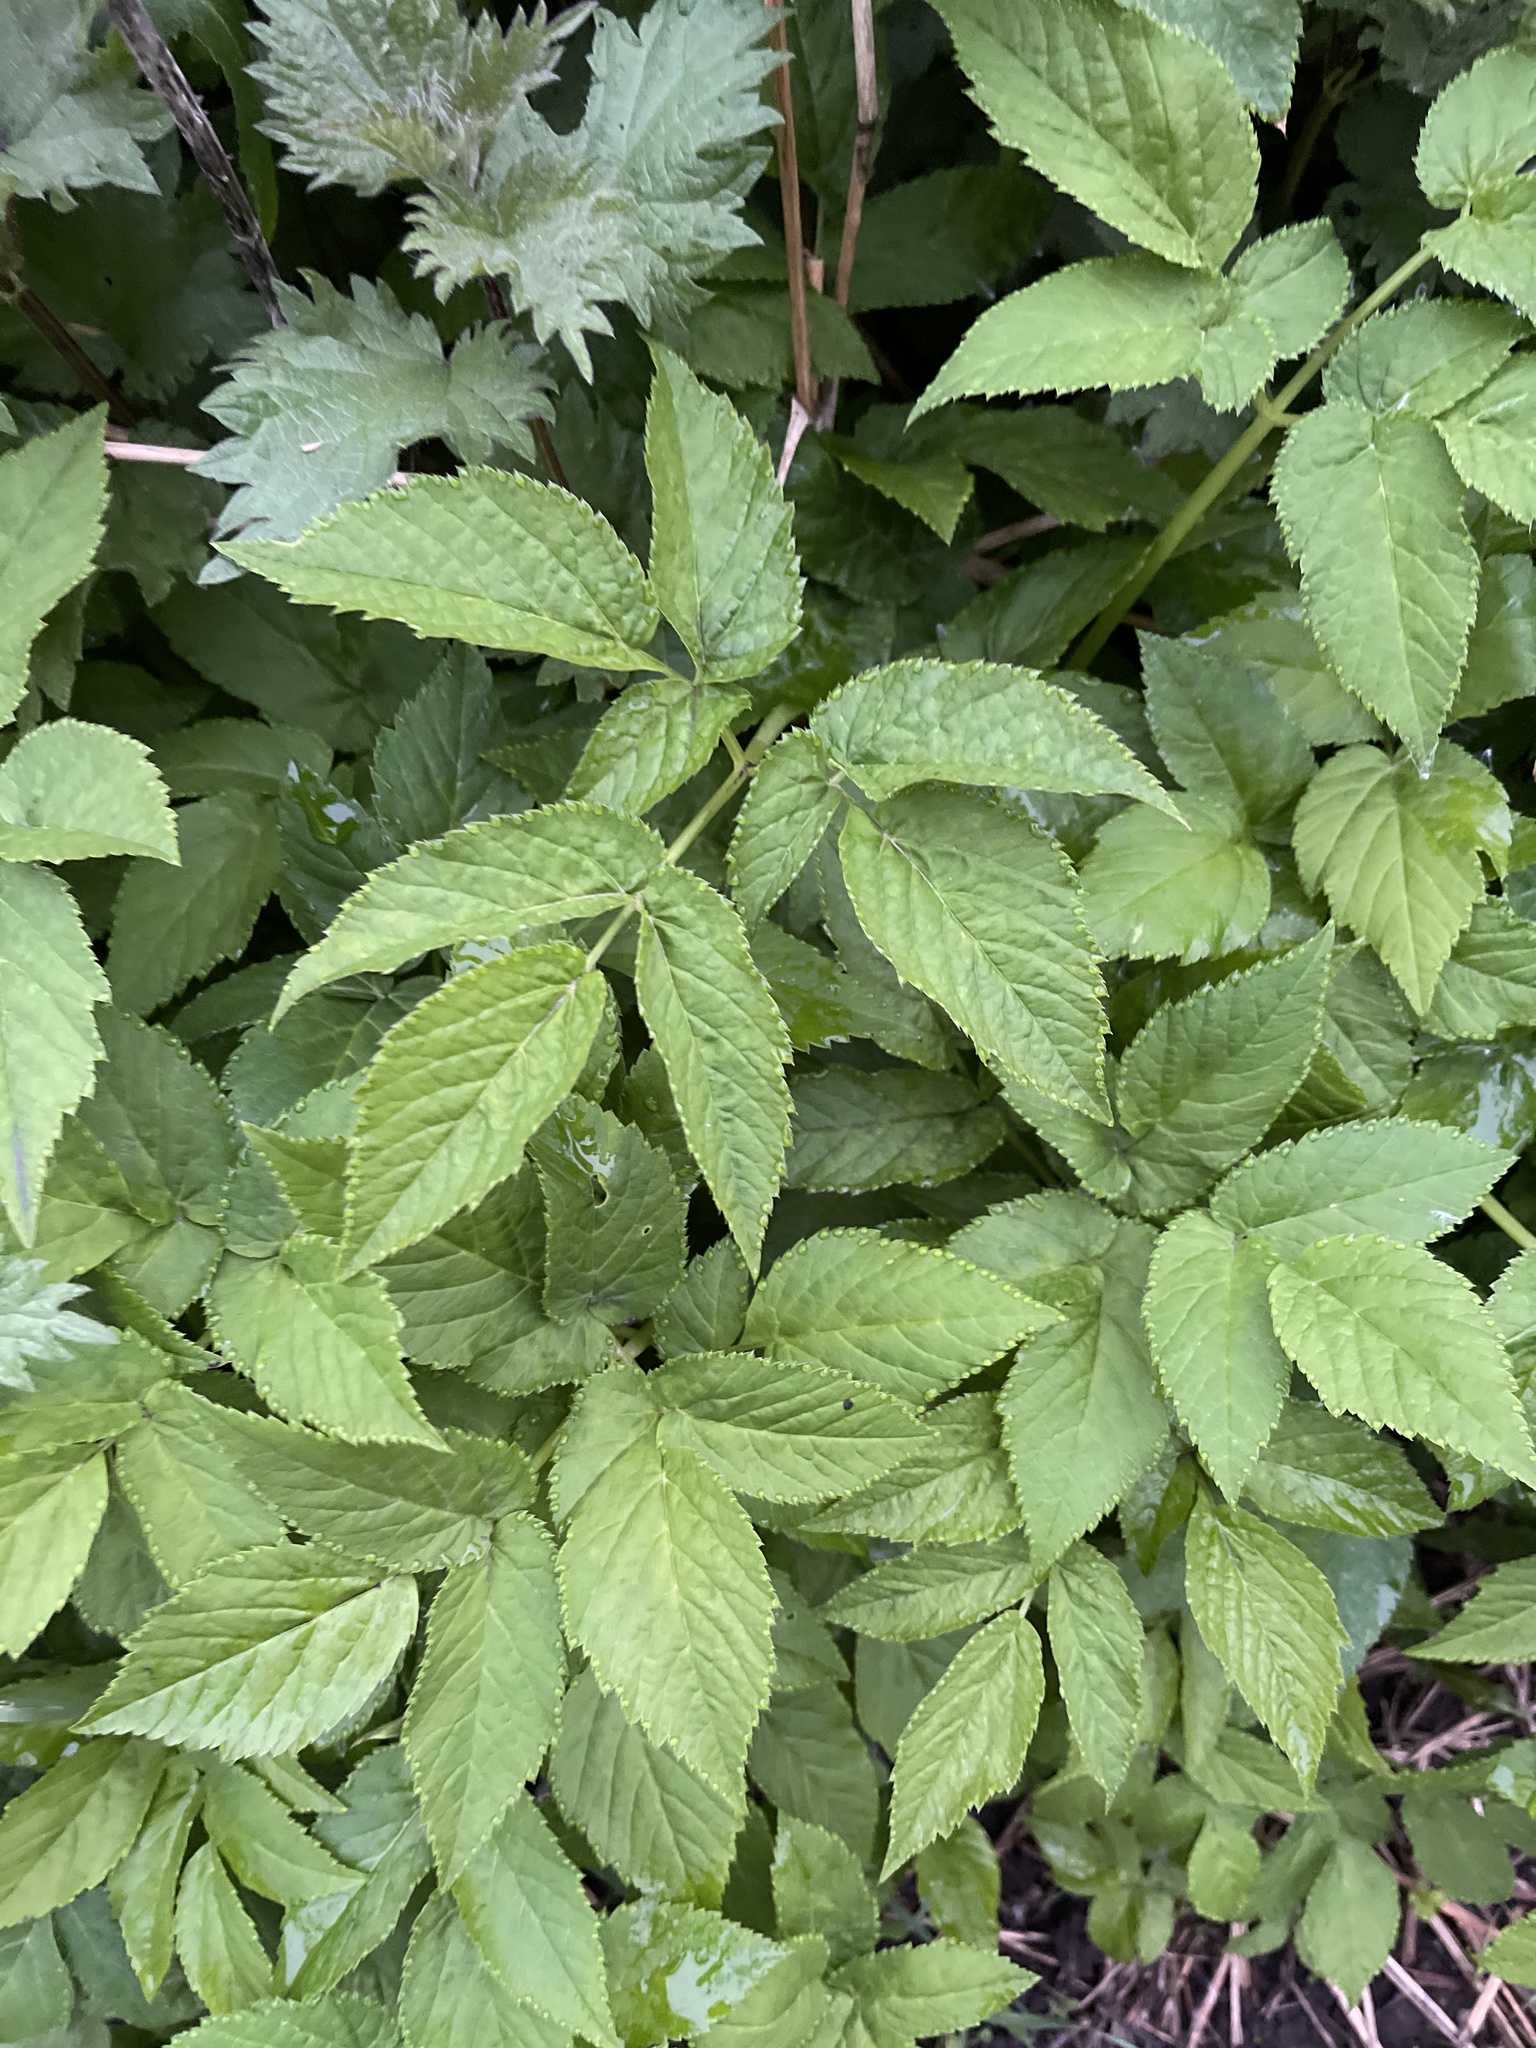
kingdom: Plantae
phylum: Tracheophyta
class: Magnoliopsida
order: Apiales
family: Apiaceae
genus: Aegopodium
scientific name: Aegopodium podagraria
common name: Ground-elder
